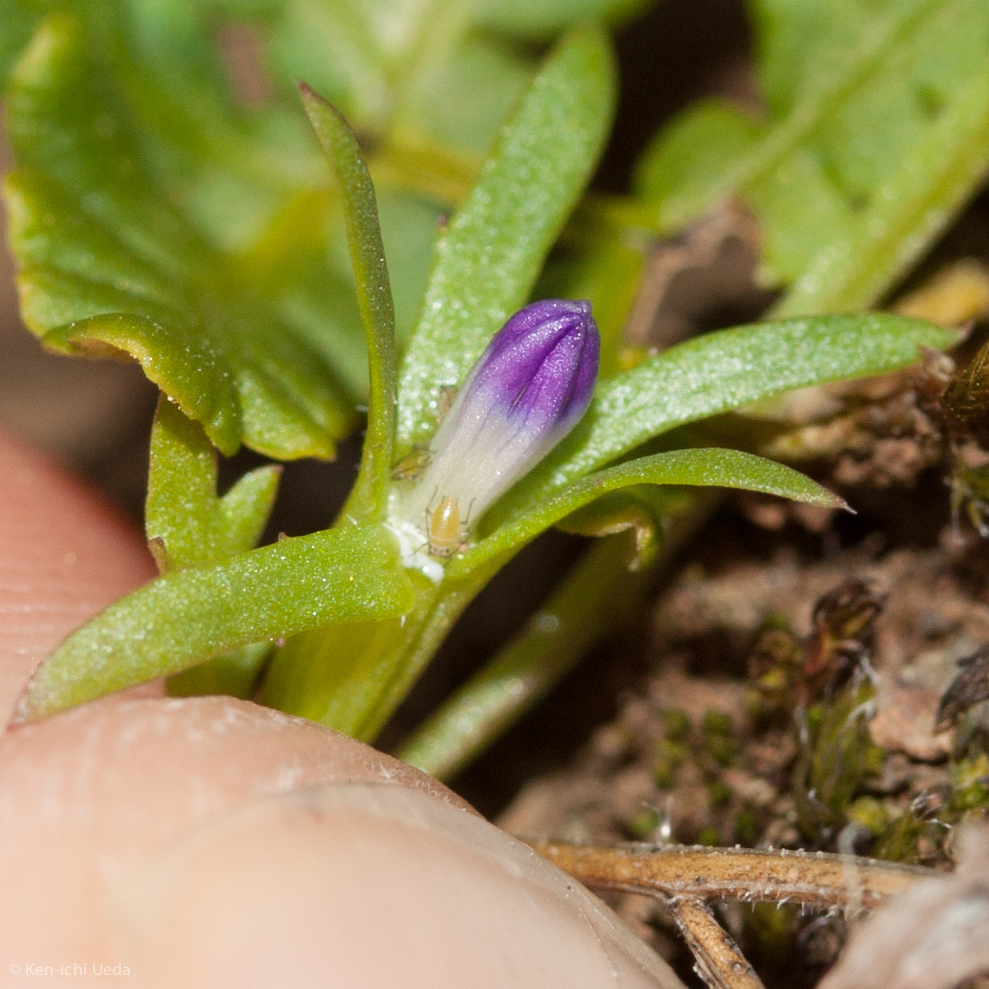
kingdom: Plantae
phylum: Tracheophyta
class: Magnoliopsida
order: Asterales
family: Campanulaceae
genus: Githopsis
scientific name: Githopsis diffusa
